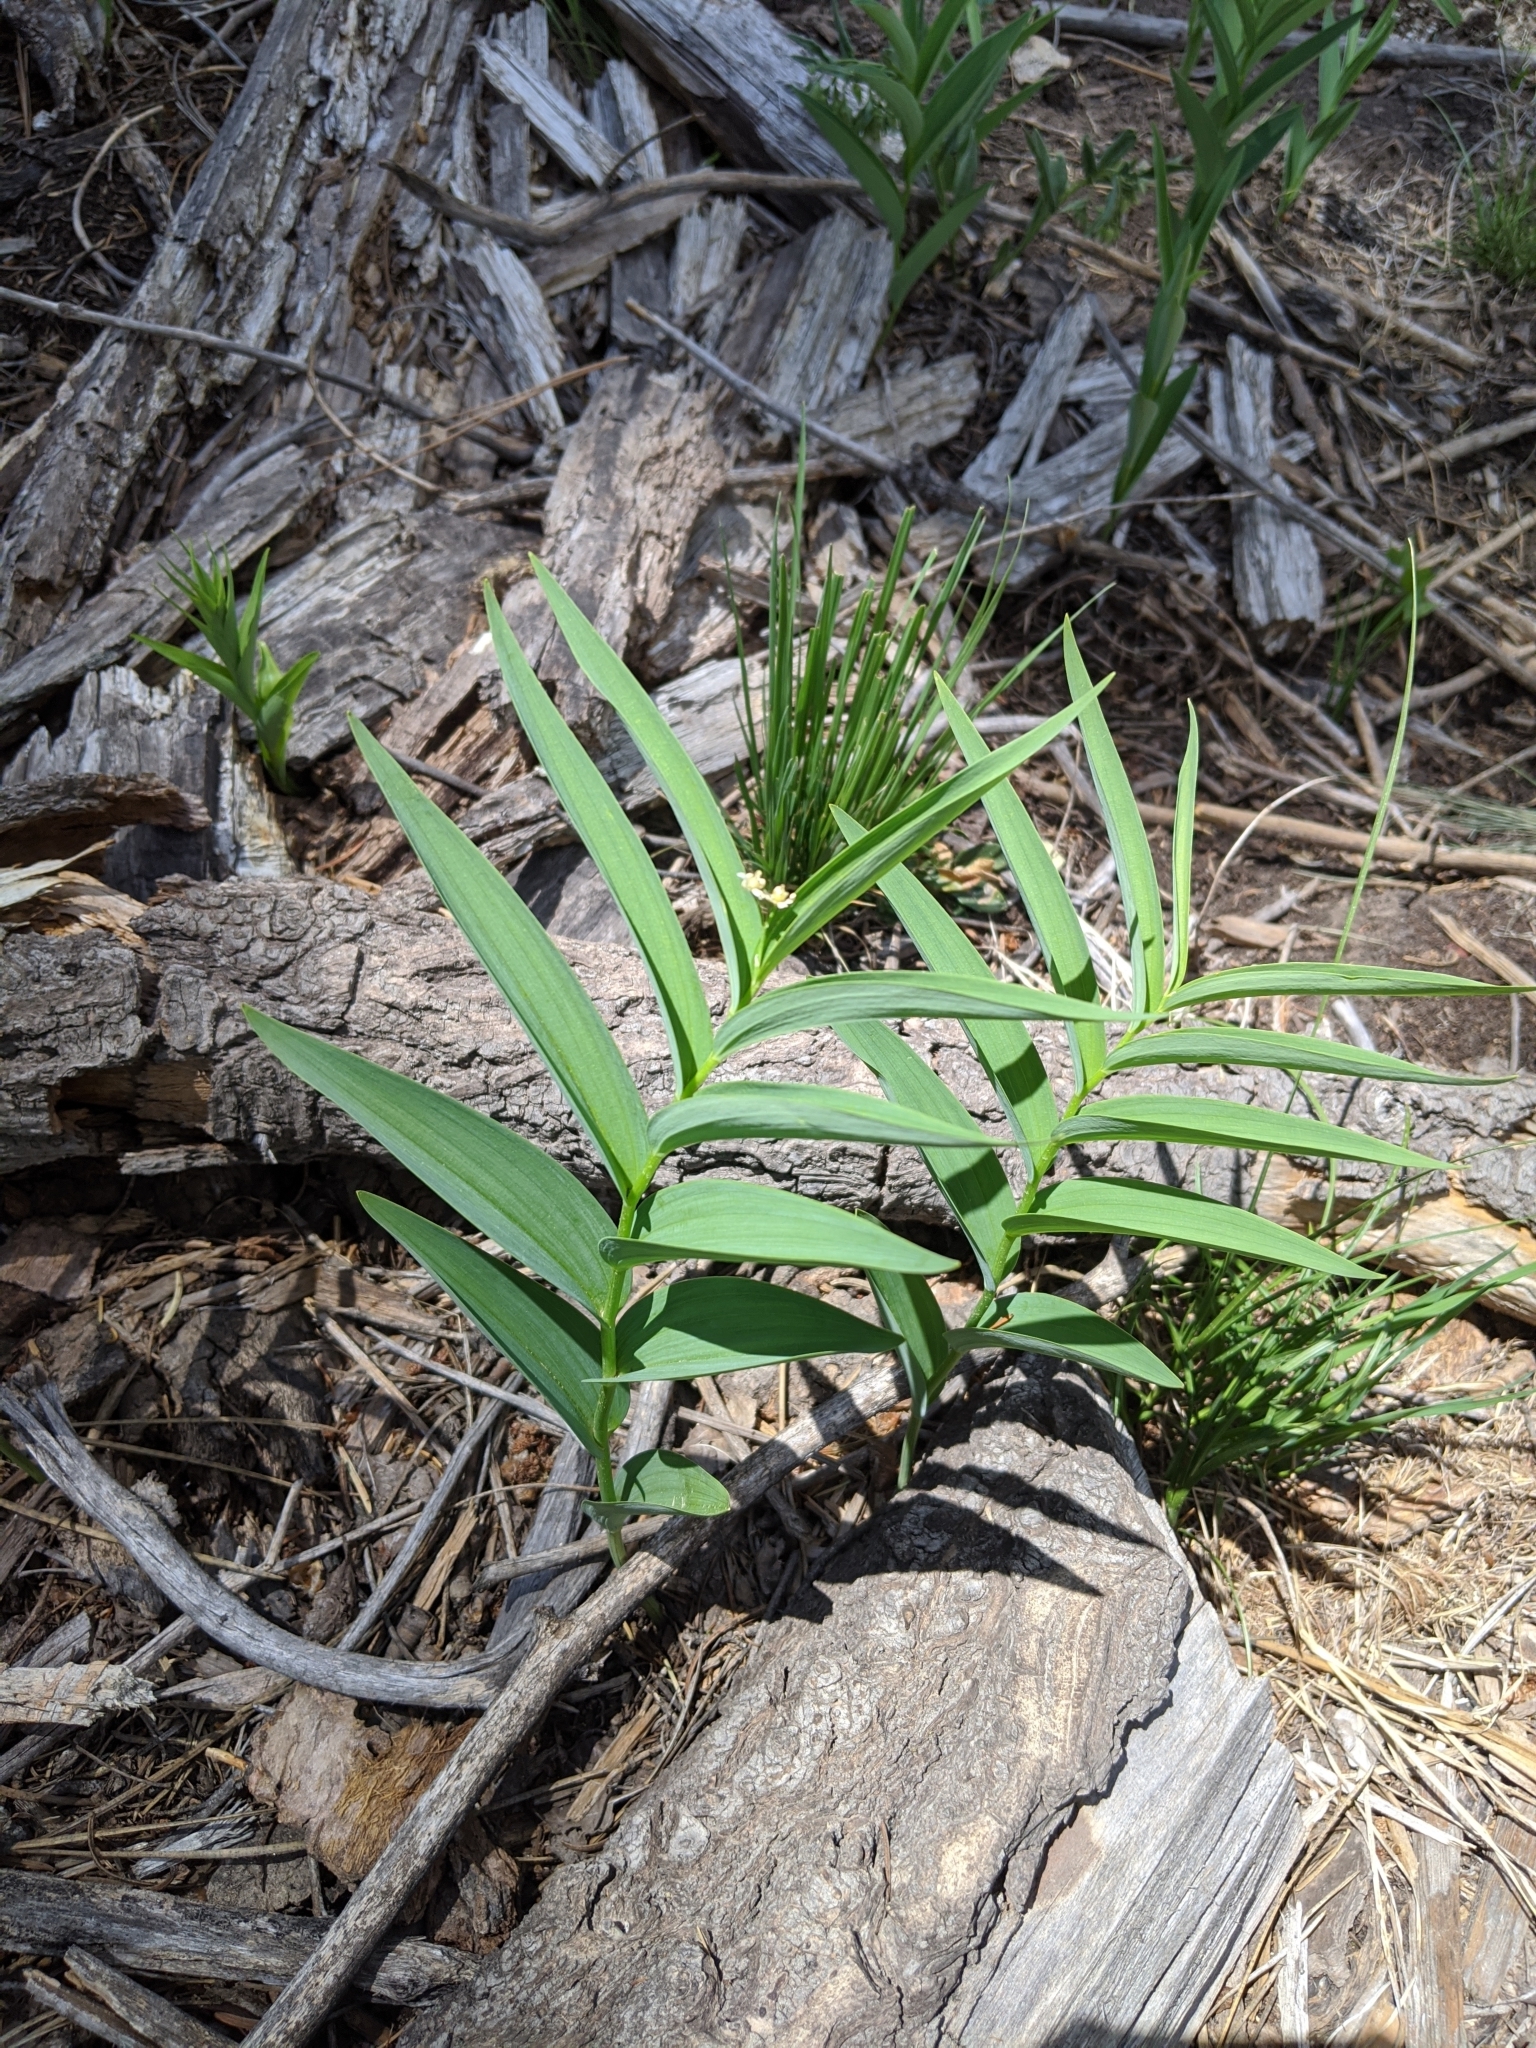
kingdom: Plantae
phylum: Tracheophyta
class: Liliopsida
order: Asparagales
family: Asparagaceae
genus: Maianthemum
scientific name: Maianthemum stellatum
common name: Little false solomon's seal
